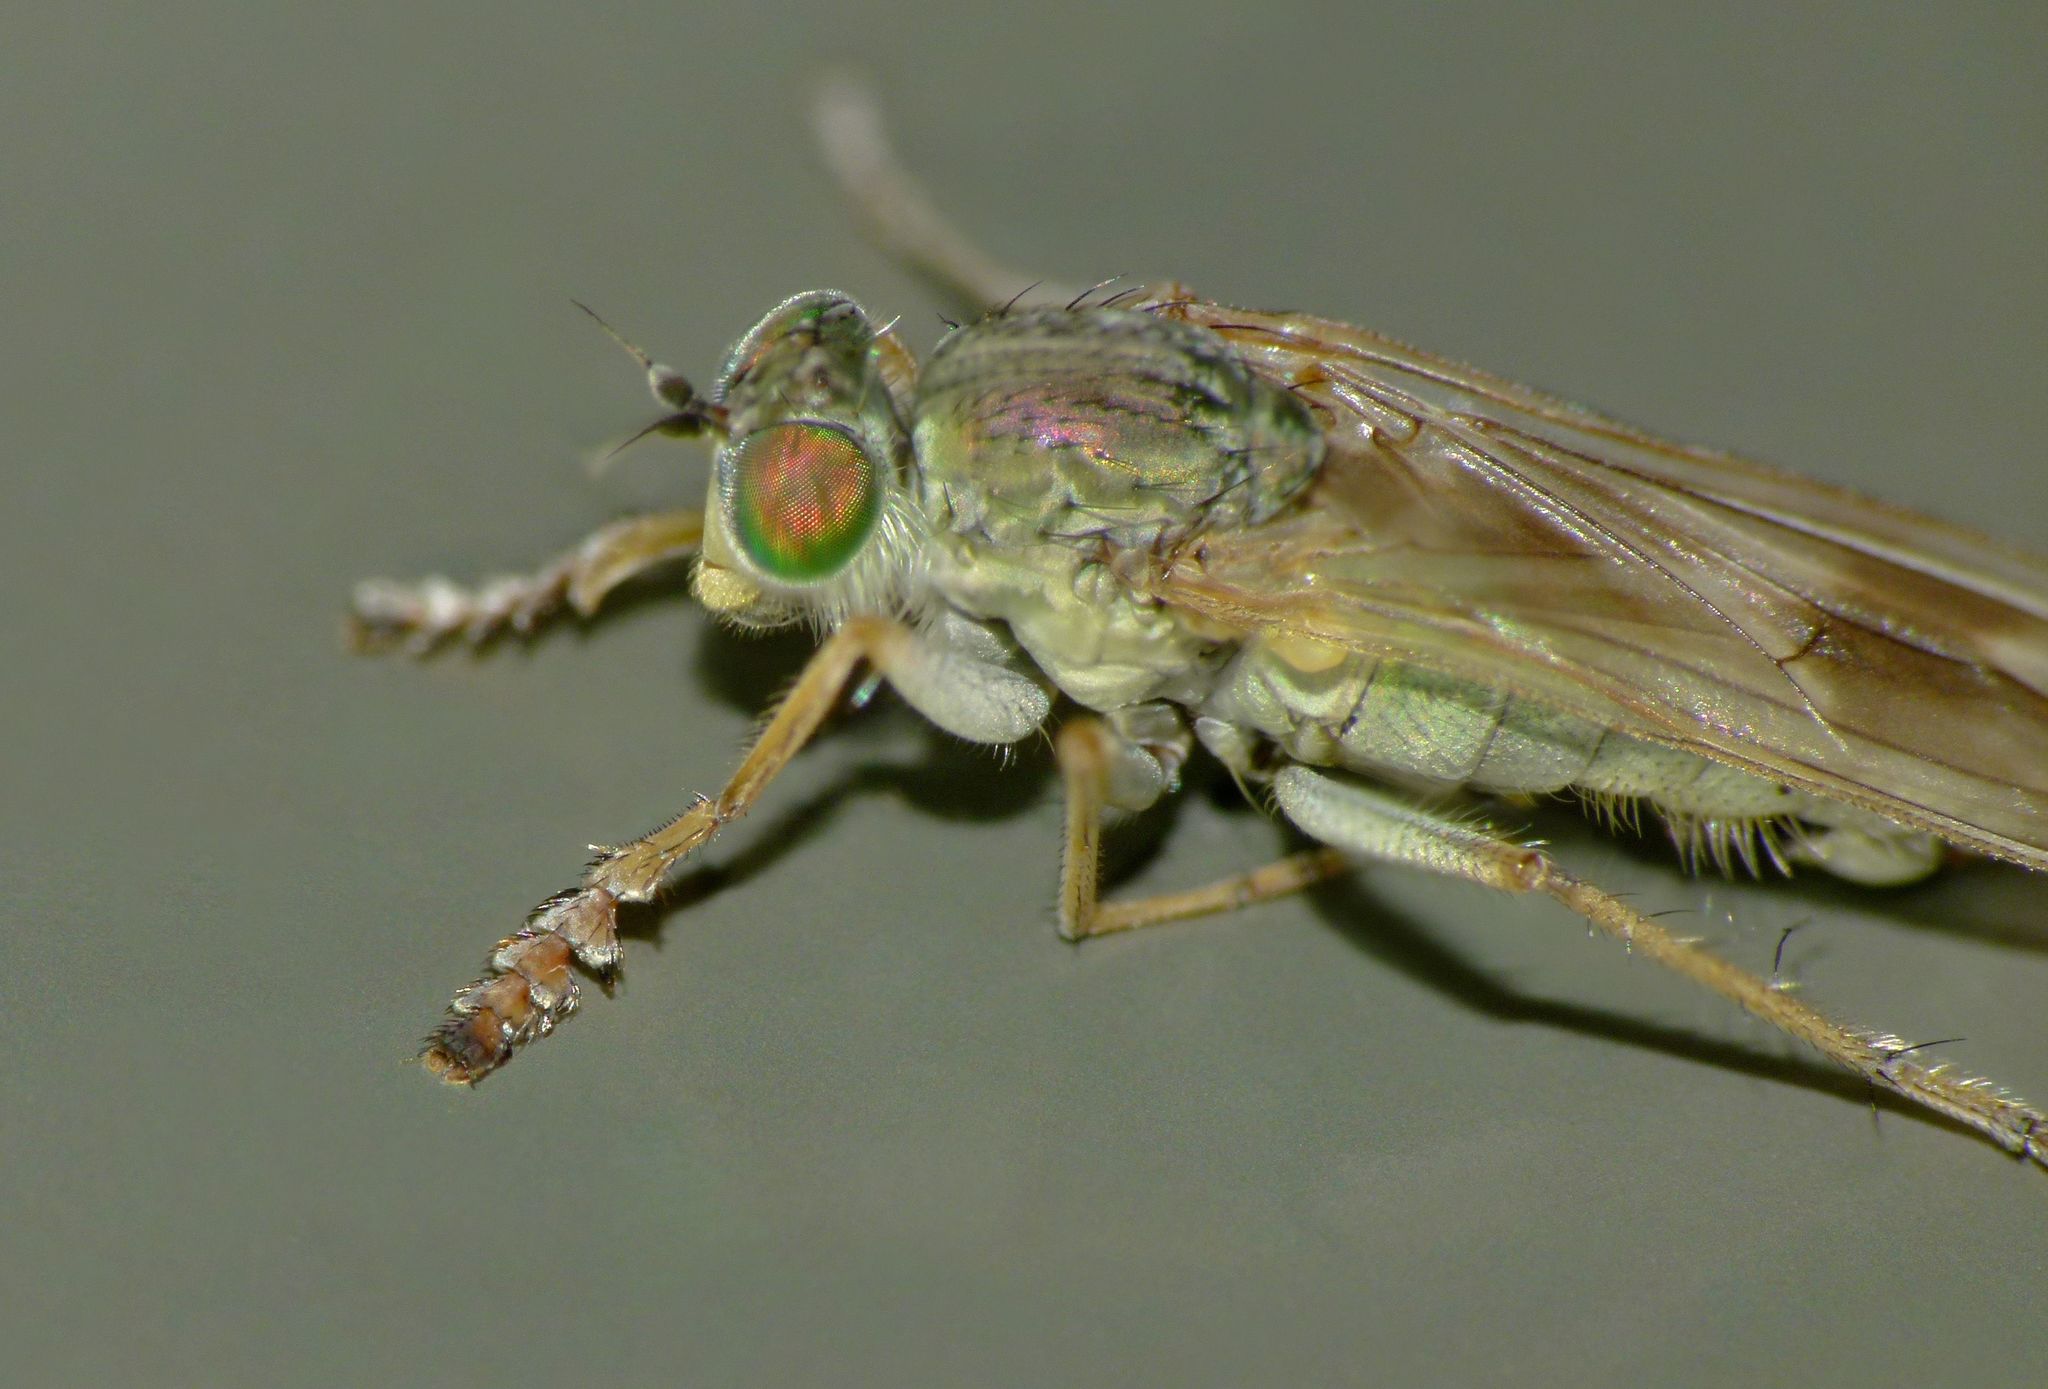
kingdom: Animalia
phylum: Arthropoda
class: Insecta
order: Diptera
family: Dolichopodidae
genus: Scorpiurus
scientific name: Scorpiurus aramoana
